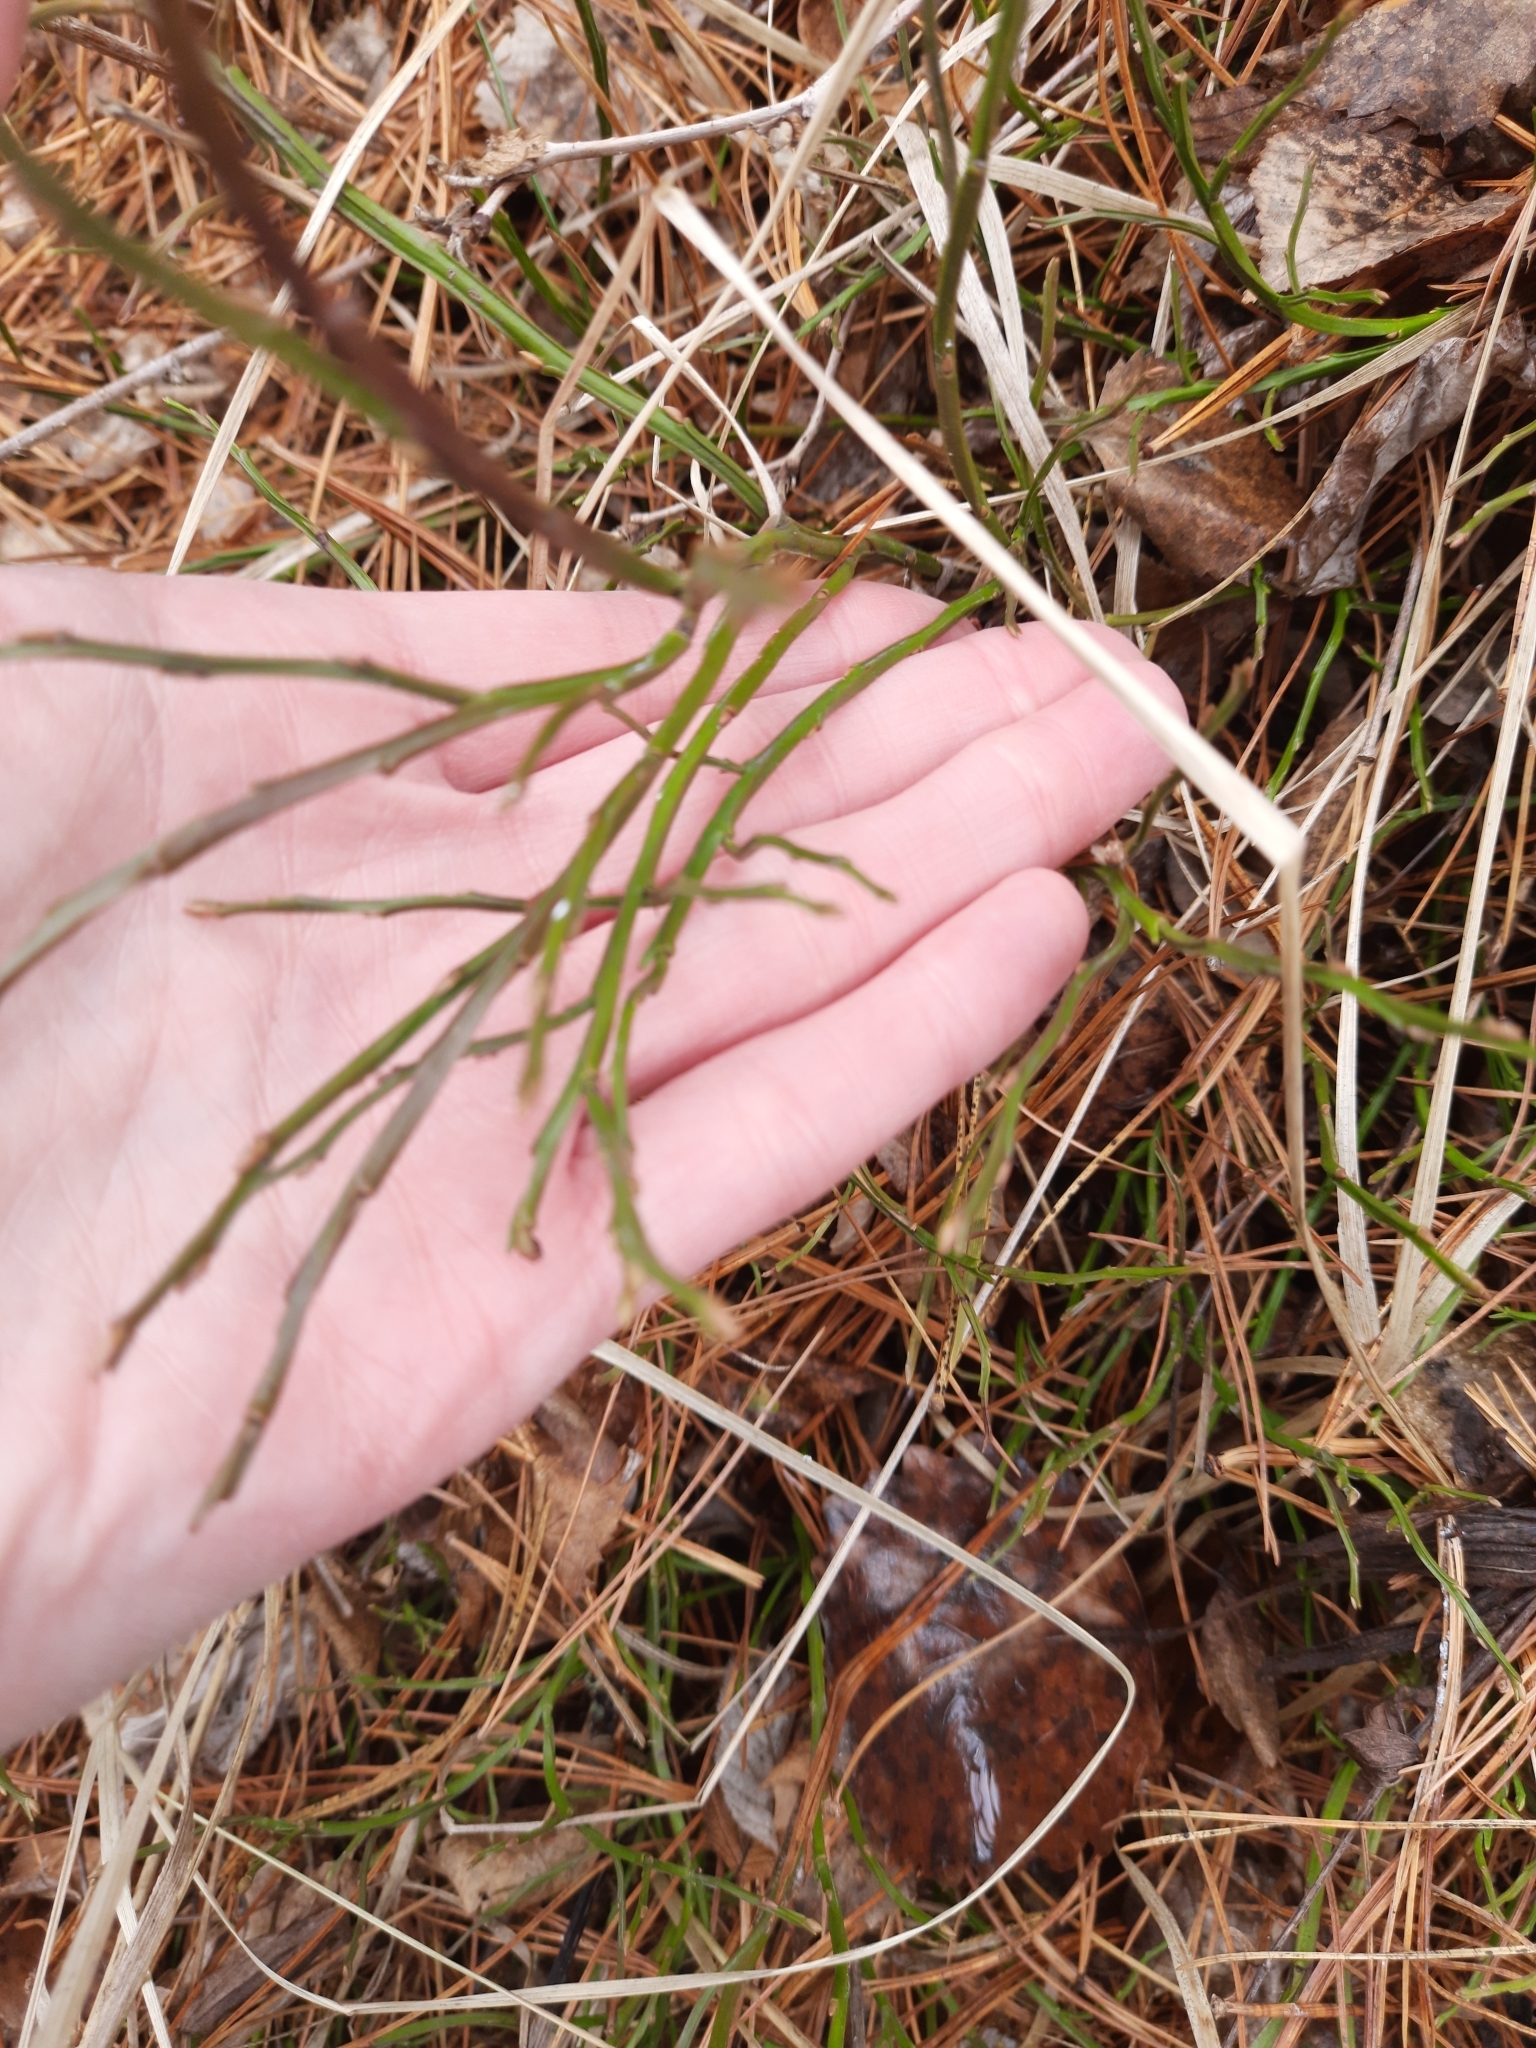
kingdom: Plantae
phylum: Tracheophyta
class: Magnoliopsida
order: Ericales
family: Ericaceae
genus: Vaccinium
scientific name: Vaccinium myrtillus
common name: Bilberry
